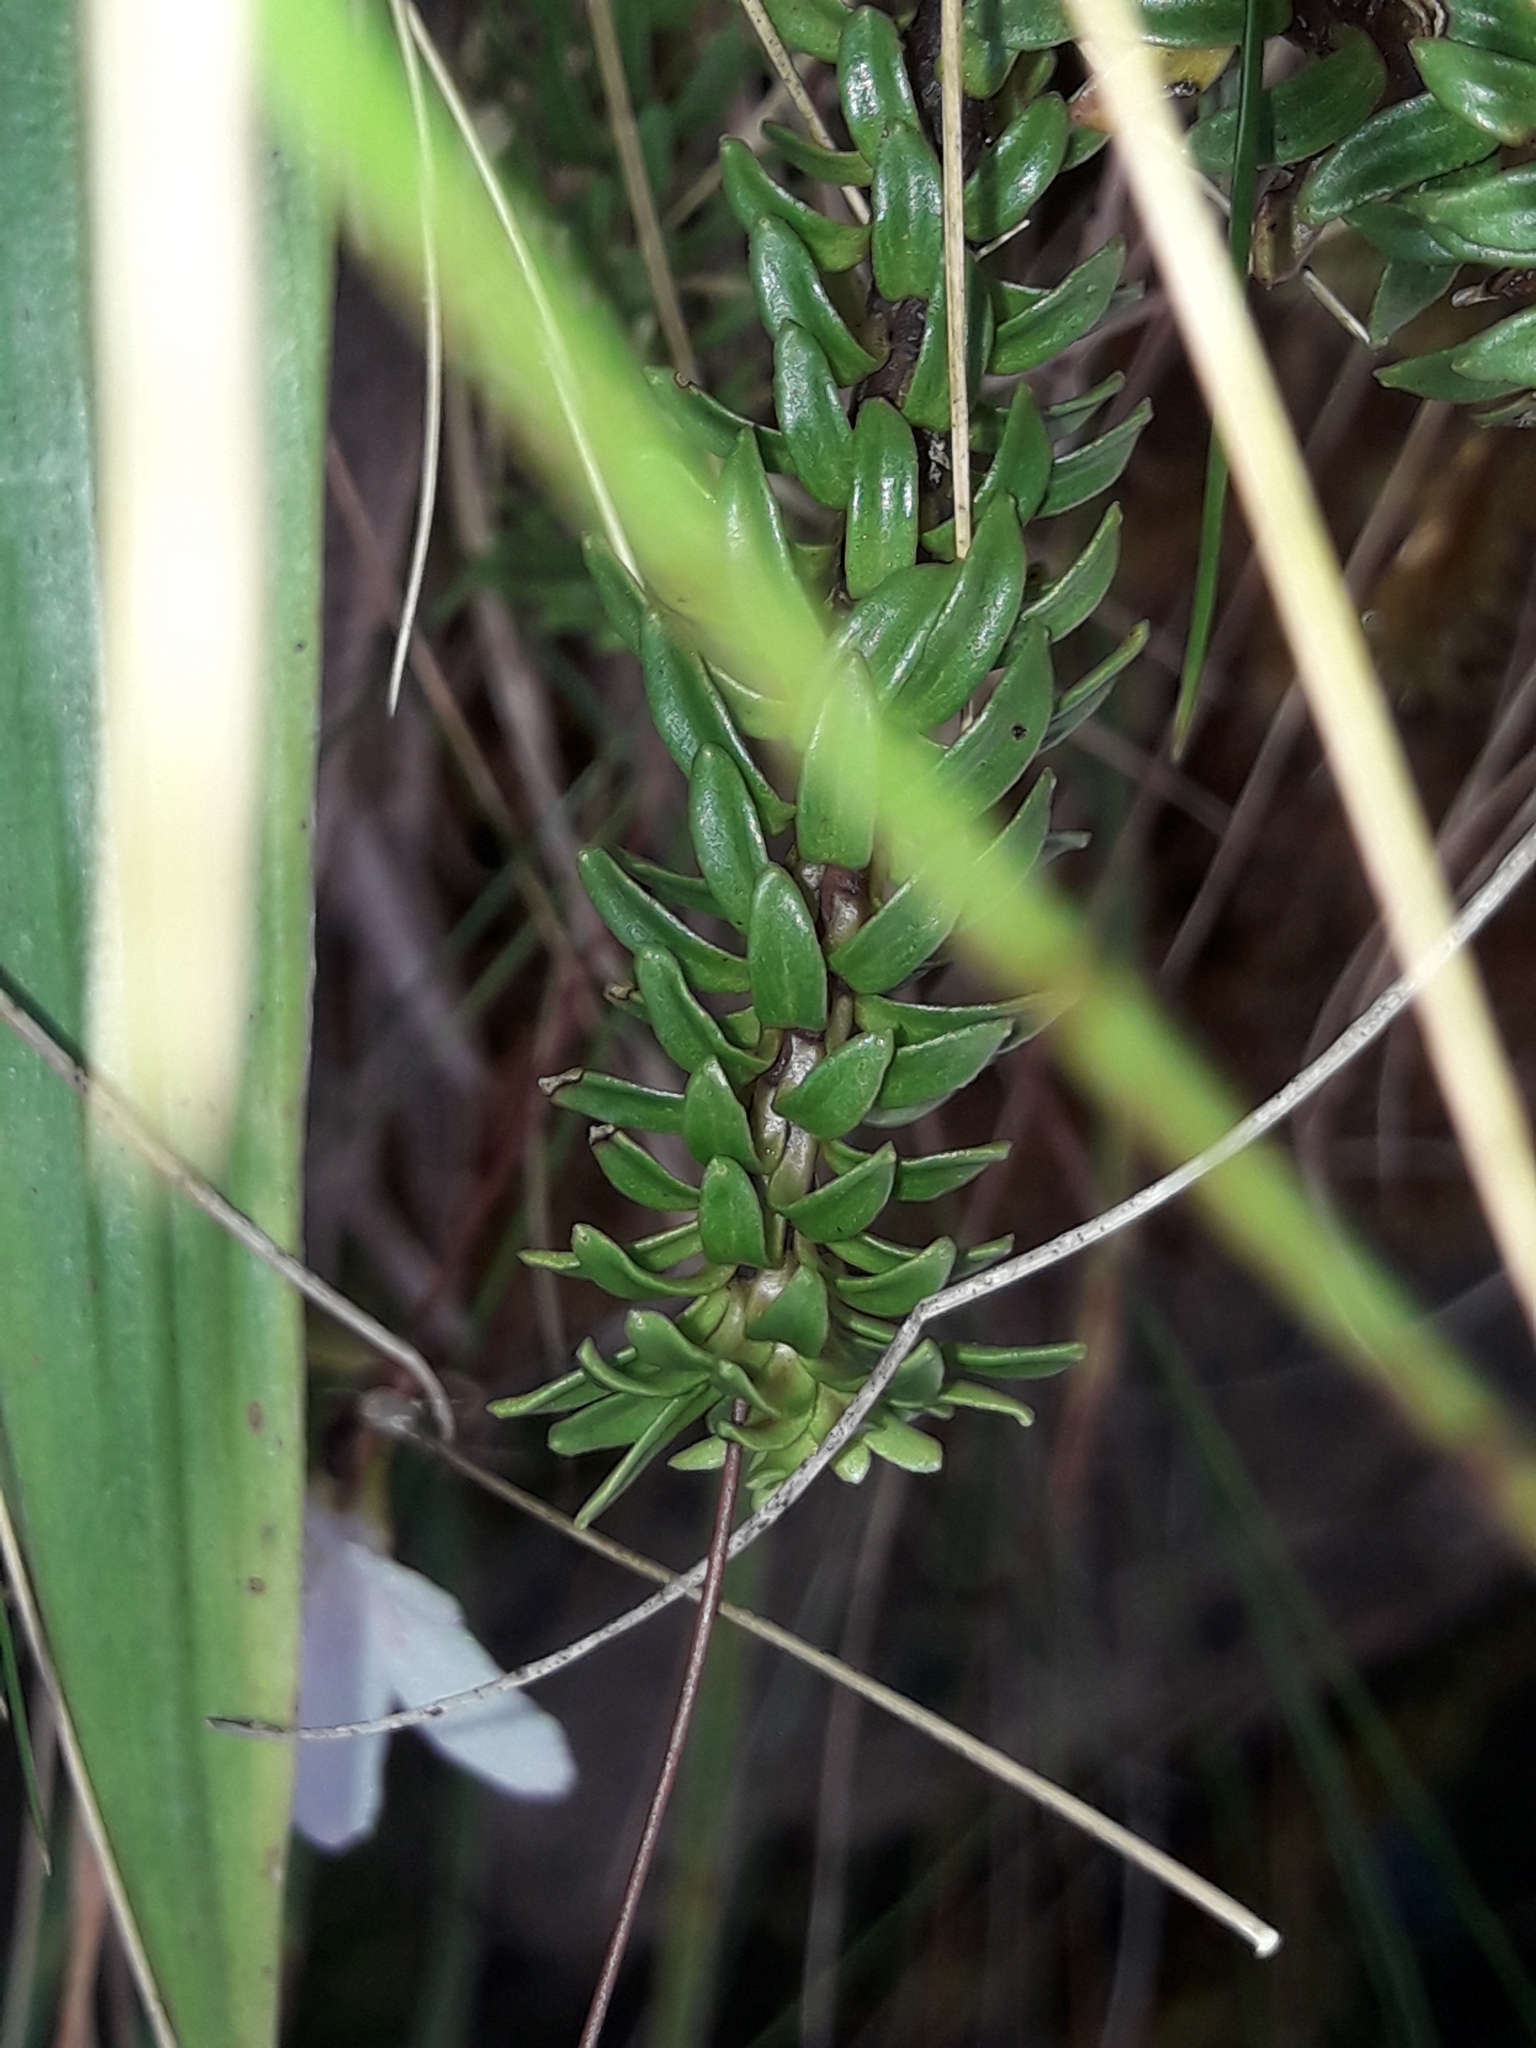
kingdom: Plantae
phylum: Tracheophyta
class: Magnoliopsida
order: Asterales
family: Stylidiaceae
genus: Forstera
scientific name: Forstera mackayi
